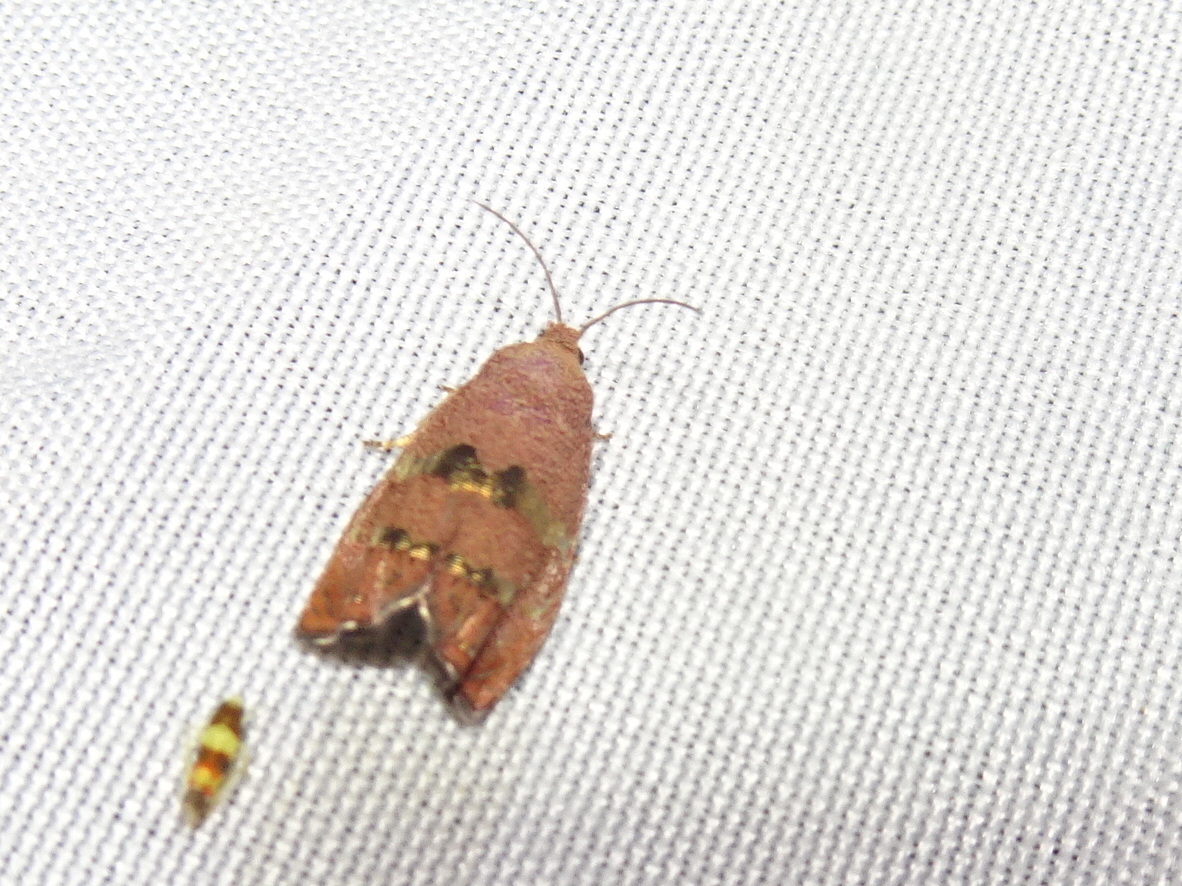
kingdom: Animalia
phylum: Arthropoda
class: Insecta
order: Lepidoptera
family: Tortricidae
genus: Cydia
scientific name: Cydia latiferreana
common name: Filbertworm moth
